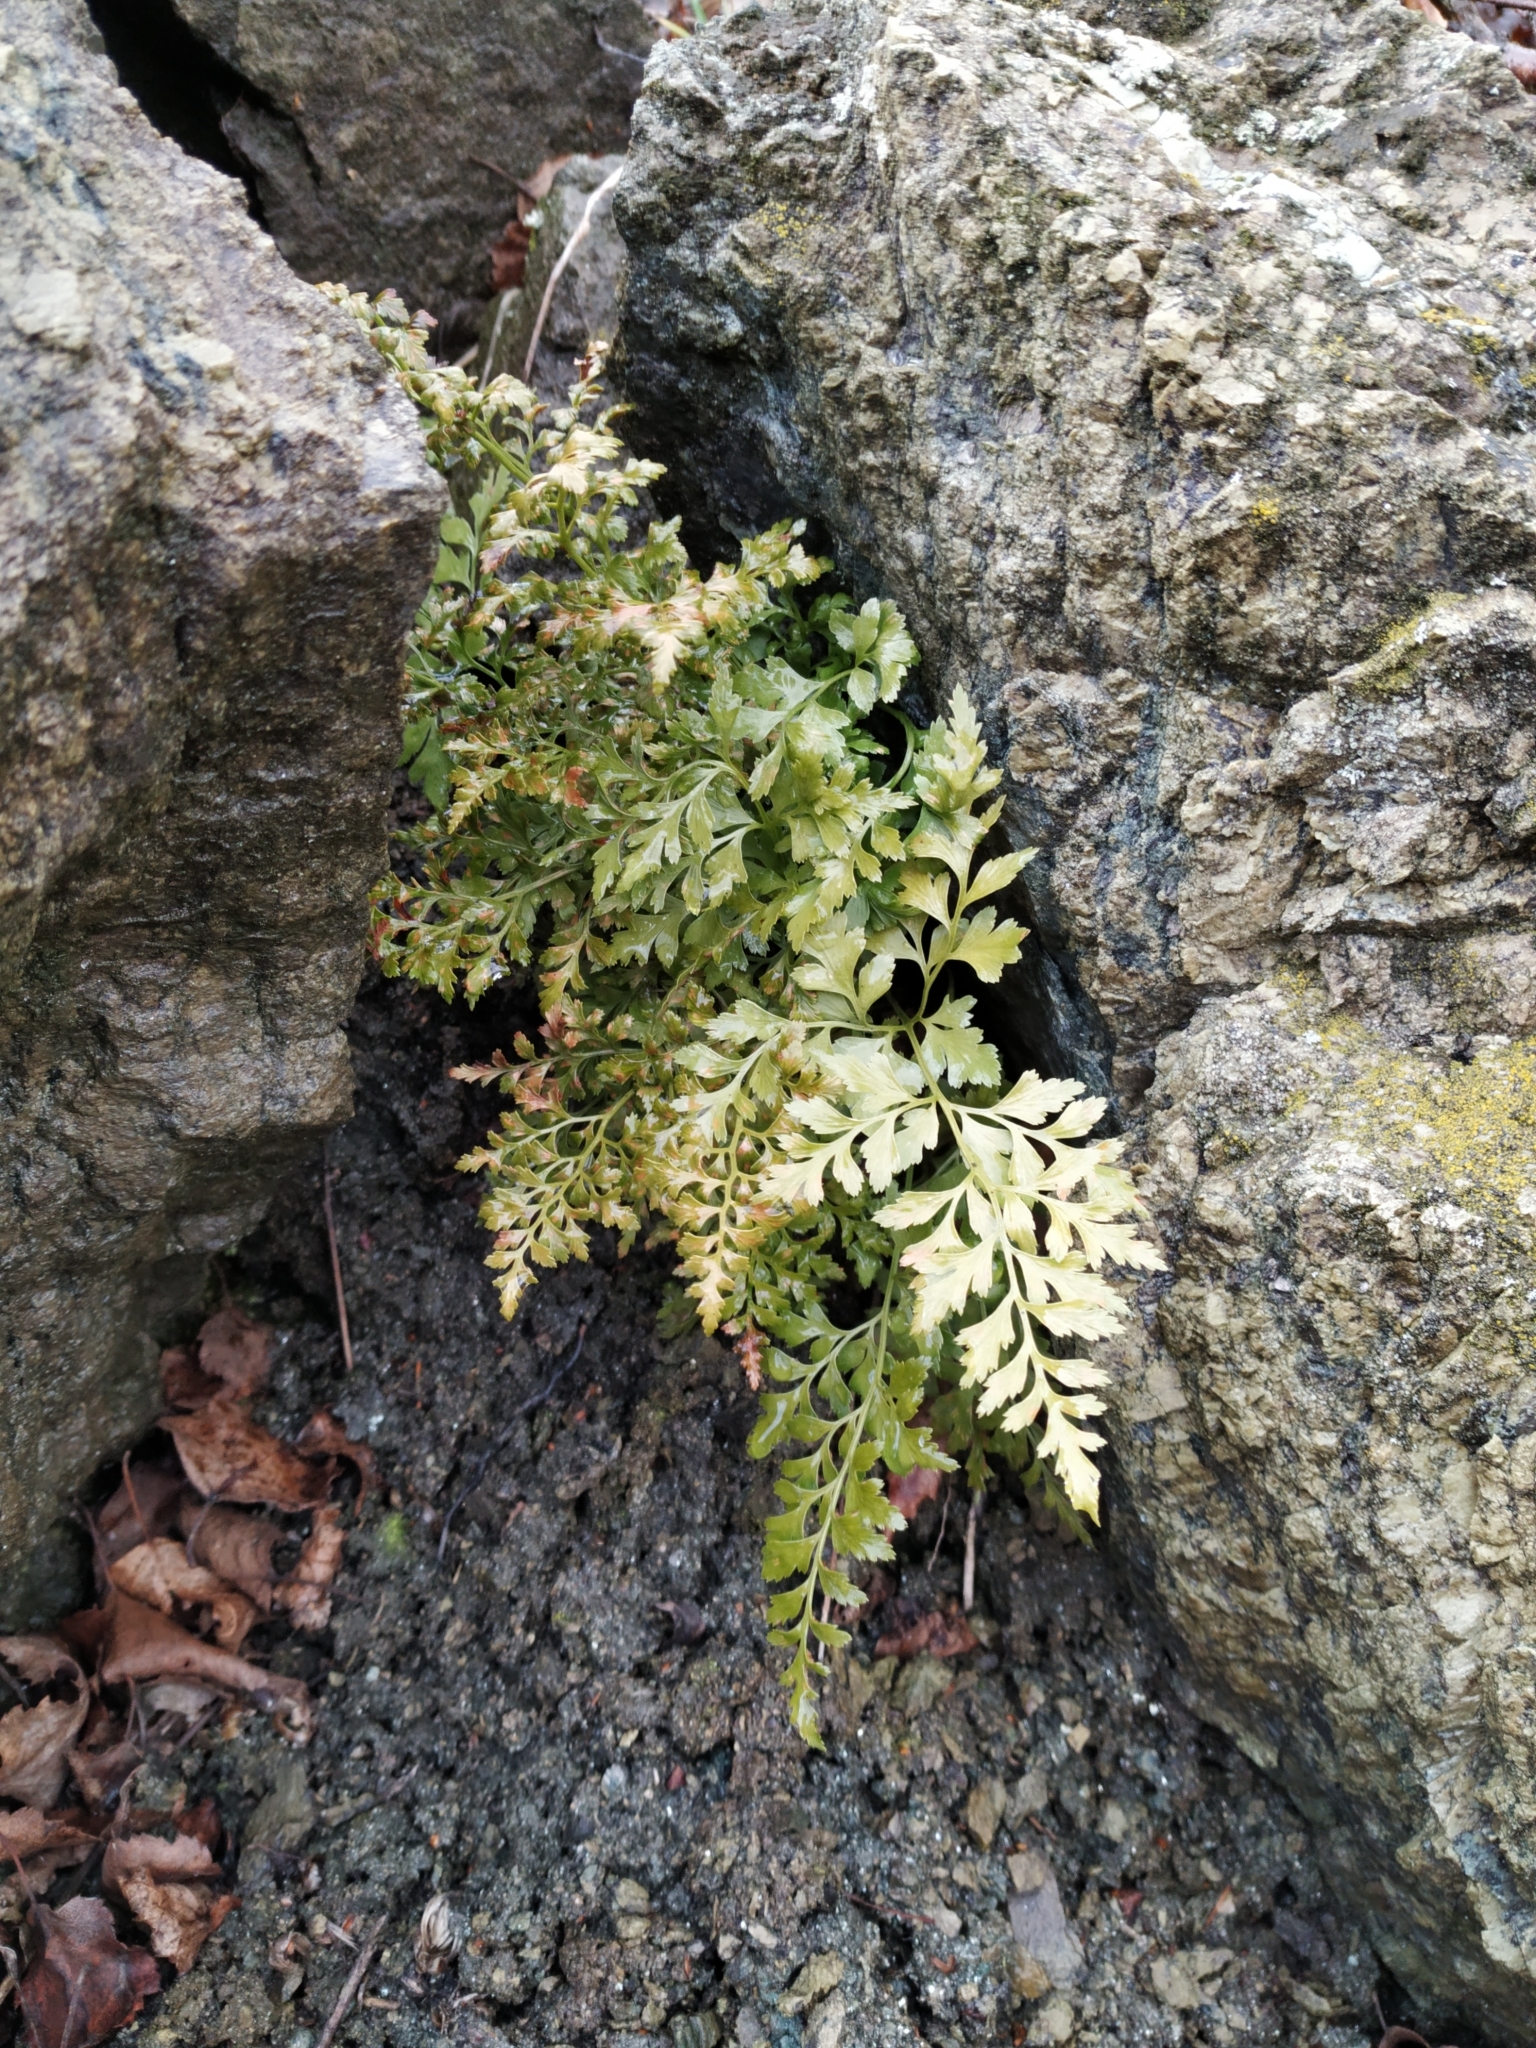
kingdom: Plantae
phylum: Tracheophyta
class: Polypodiopsida
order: Polypodiales
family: Aspleniaceae
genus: Asplenium
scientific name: Asplenium cuneifolium
